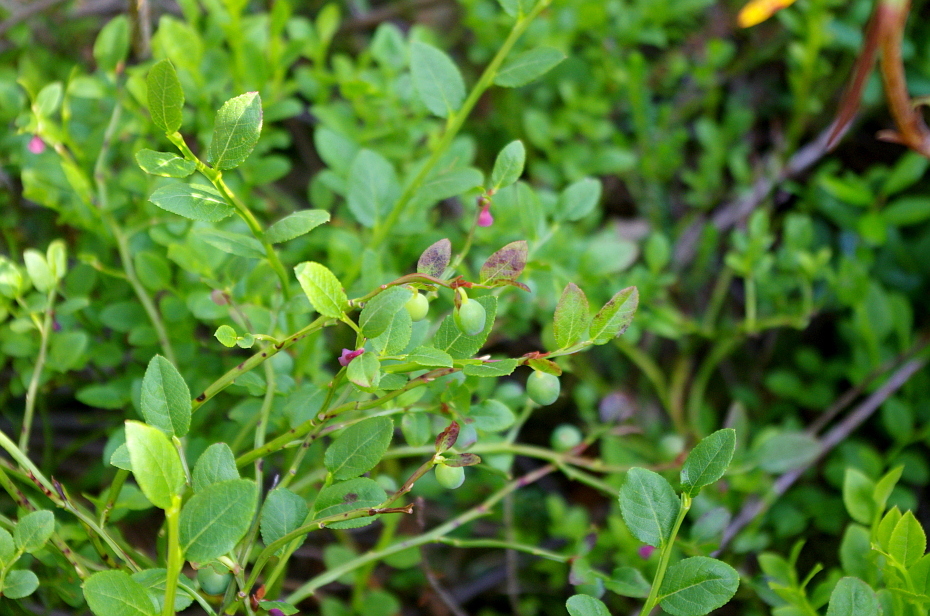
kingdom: Plantae
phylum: Tracheophyta
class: Magnoliopsida
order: Ericales
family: Ericaceae
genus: Vaccinium
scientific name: Vaccinium myrtillus
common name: Bilberry
